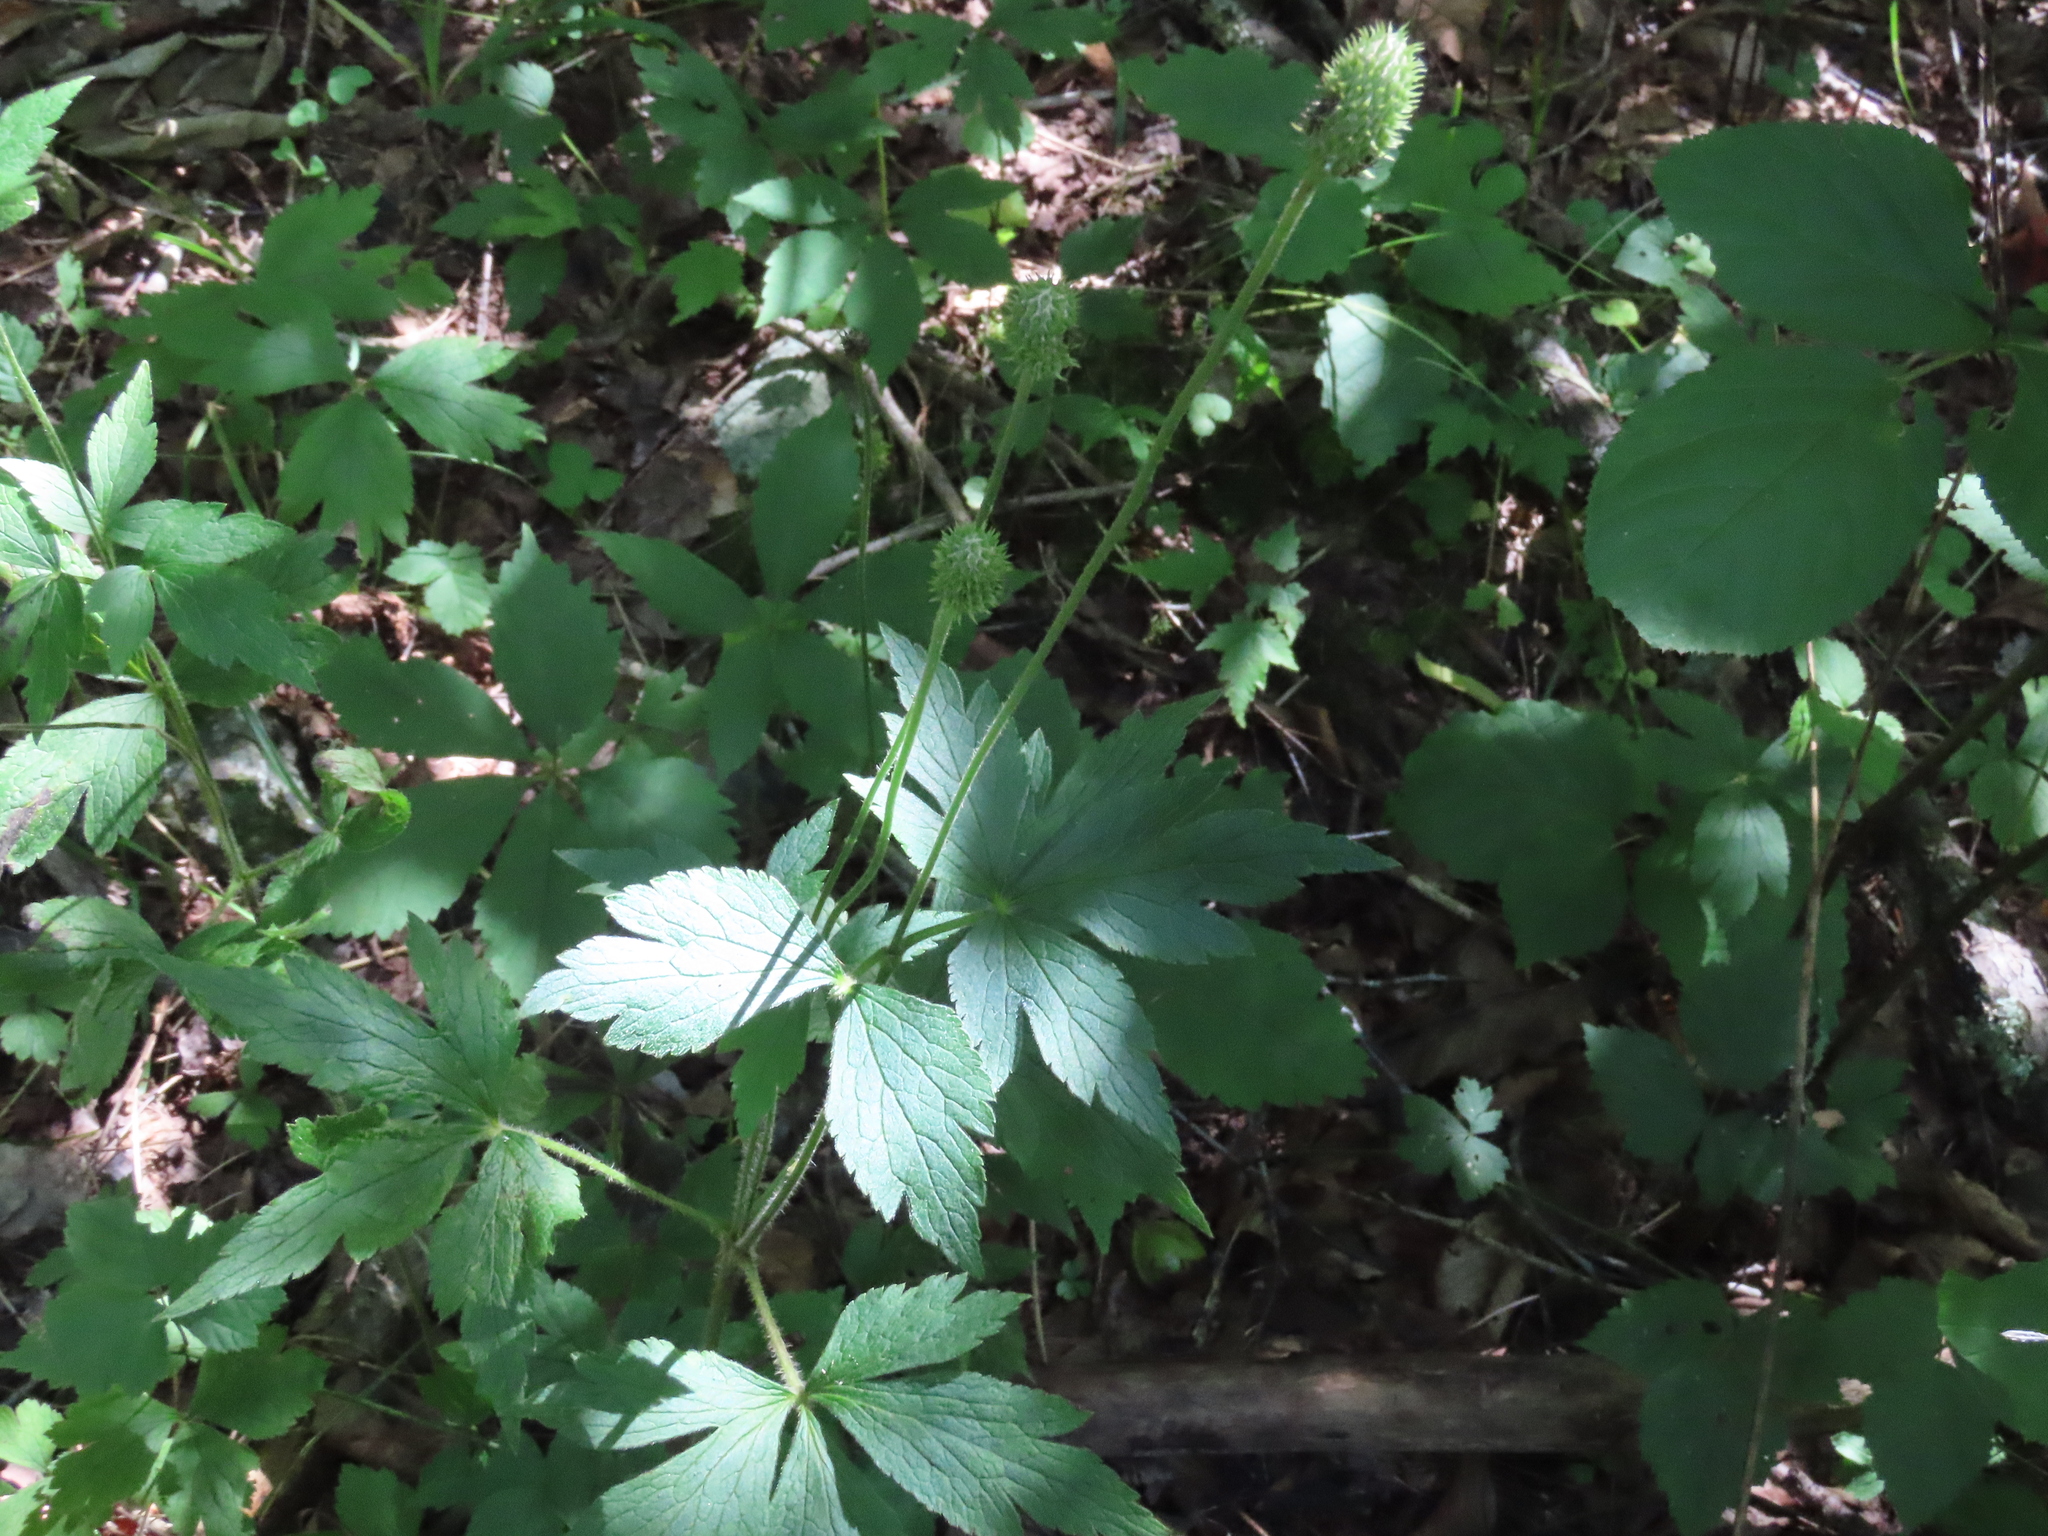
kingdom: Plantae
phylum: Tracheophyta
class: Magnoliopsida
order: Ranunculales
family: Ranunculaceae
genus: Anemone
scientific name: Anemone virginiana
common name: Tall anemone
